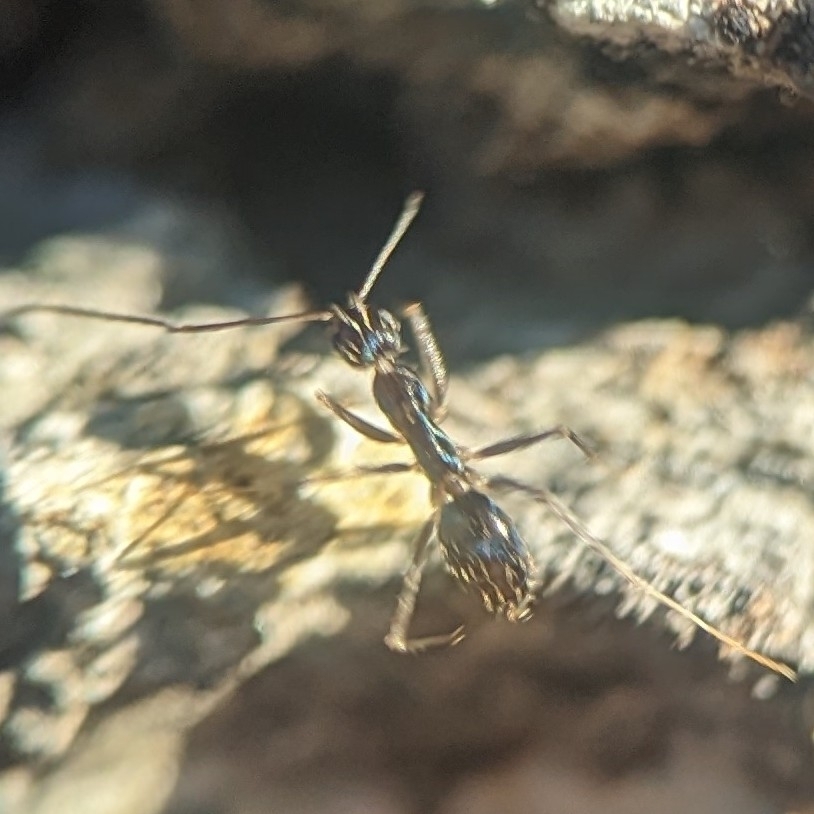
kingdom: Animalia
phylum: Arthropoda
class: Insecta
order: Hymenoptera
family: Formicidae
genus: Paratrechina
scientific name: Paratrechina longicornis
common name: Longhorned crazy ant
